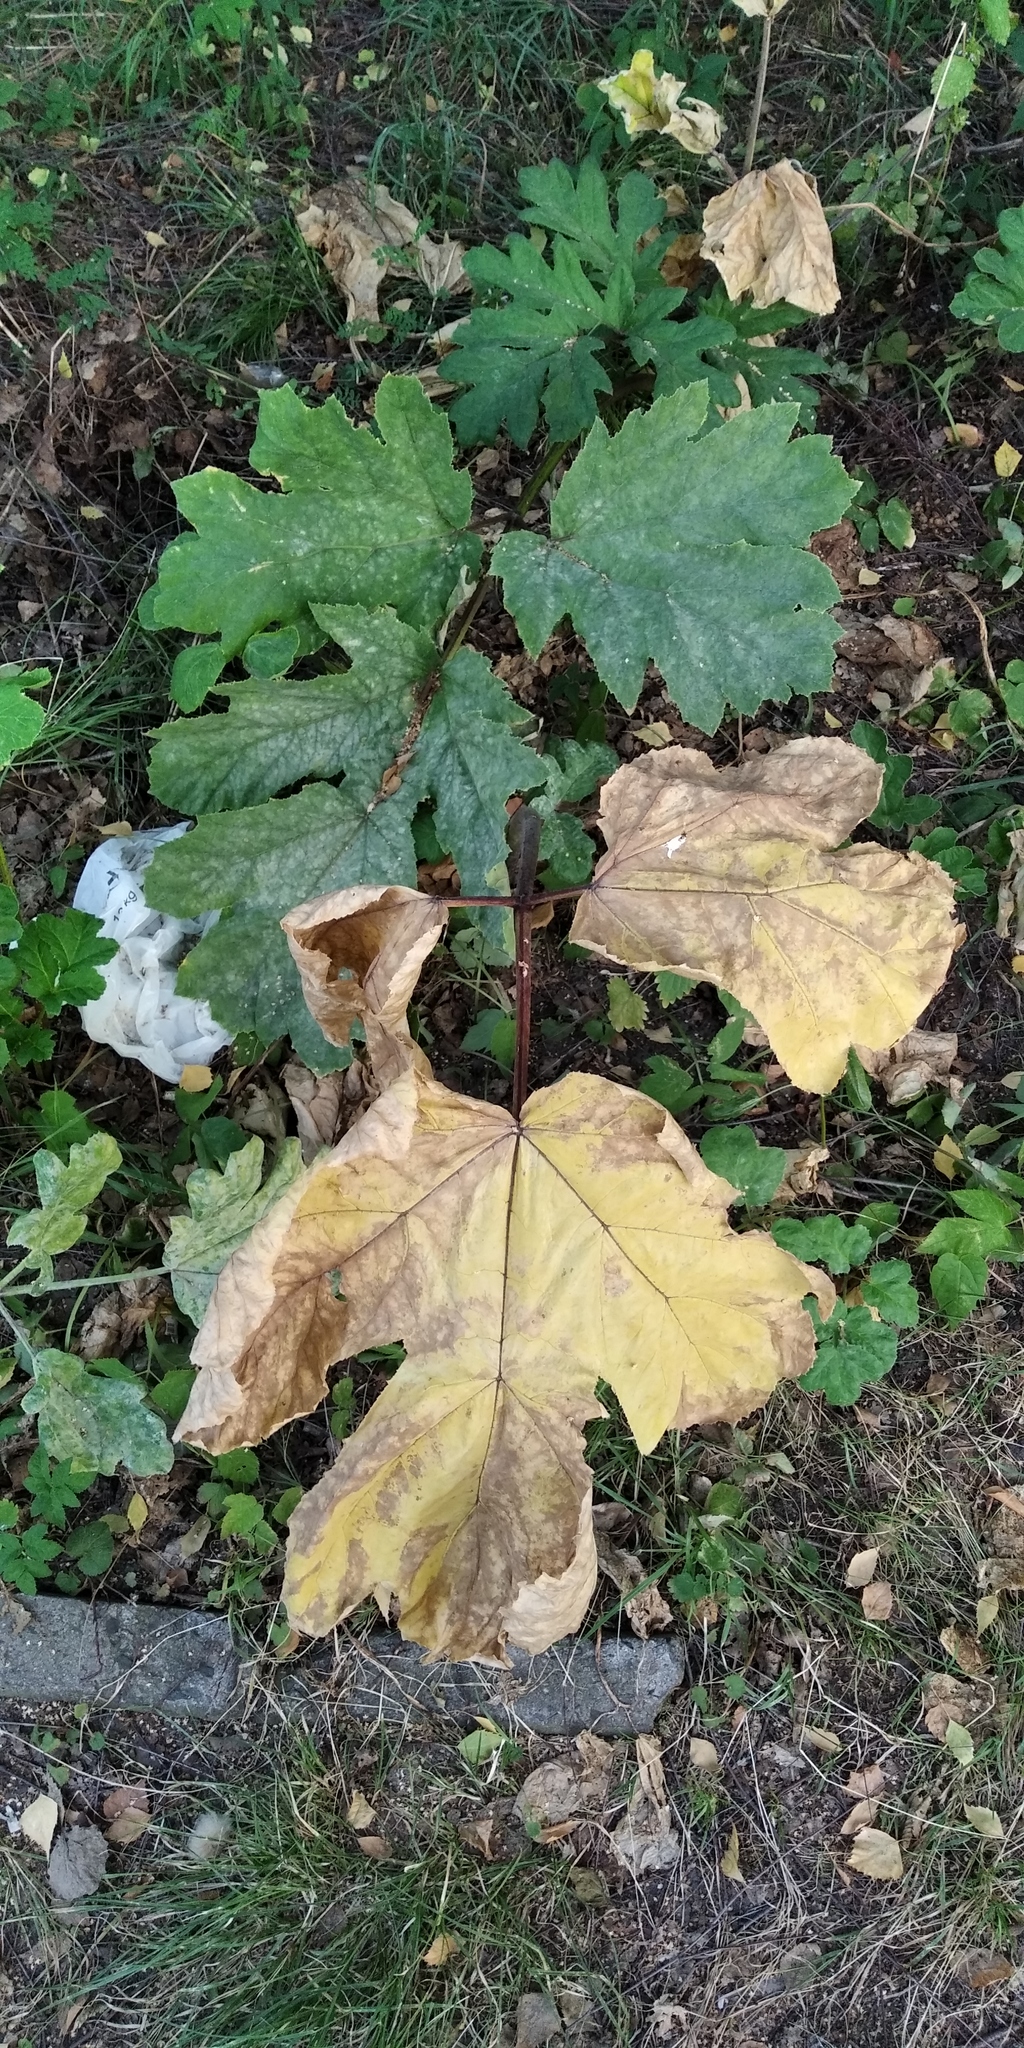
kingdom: Plantae
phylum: Tracheophyta
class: Magnoliopsida
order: Apiales
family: Apiaceae
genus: Heracleum
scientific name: Heracleum sosnowskyi
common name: Sosnowsky's hogweed
